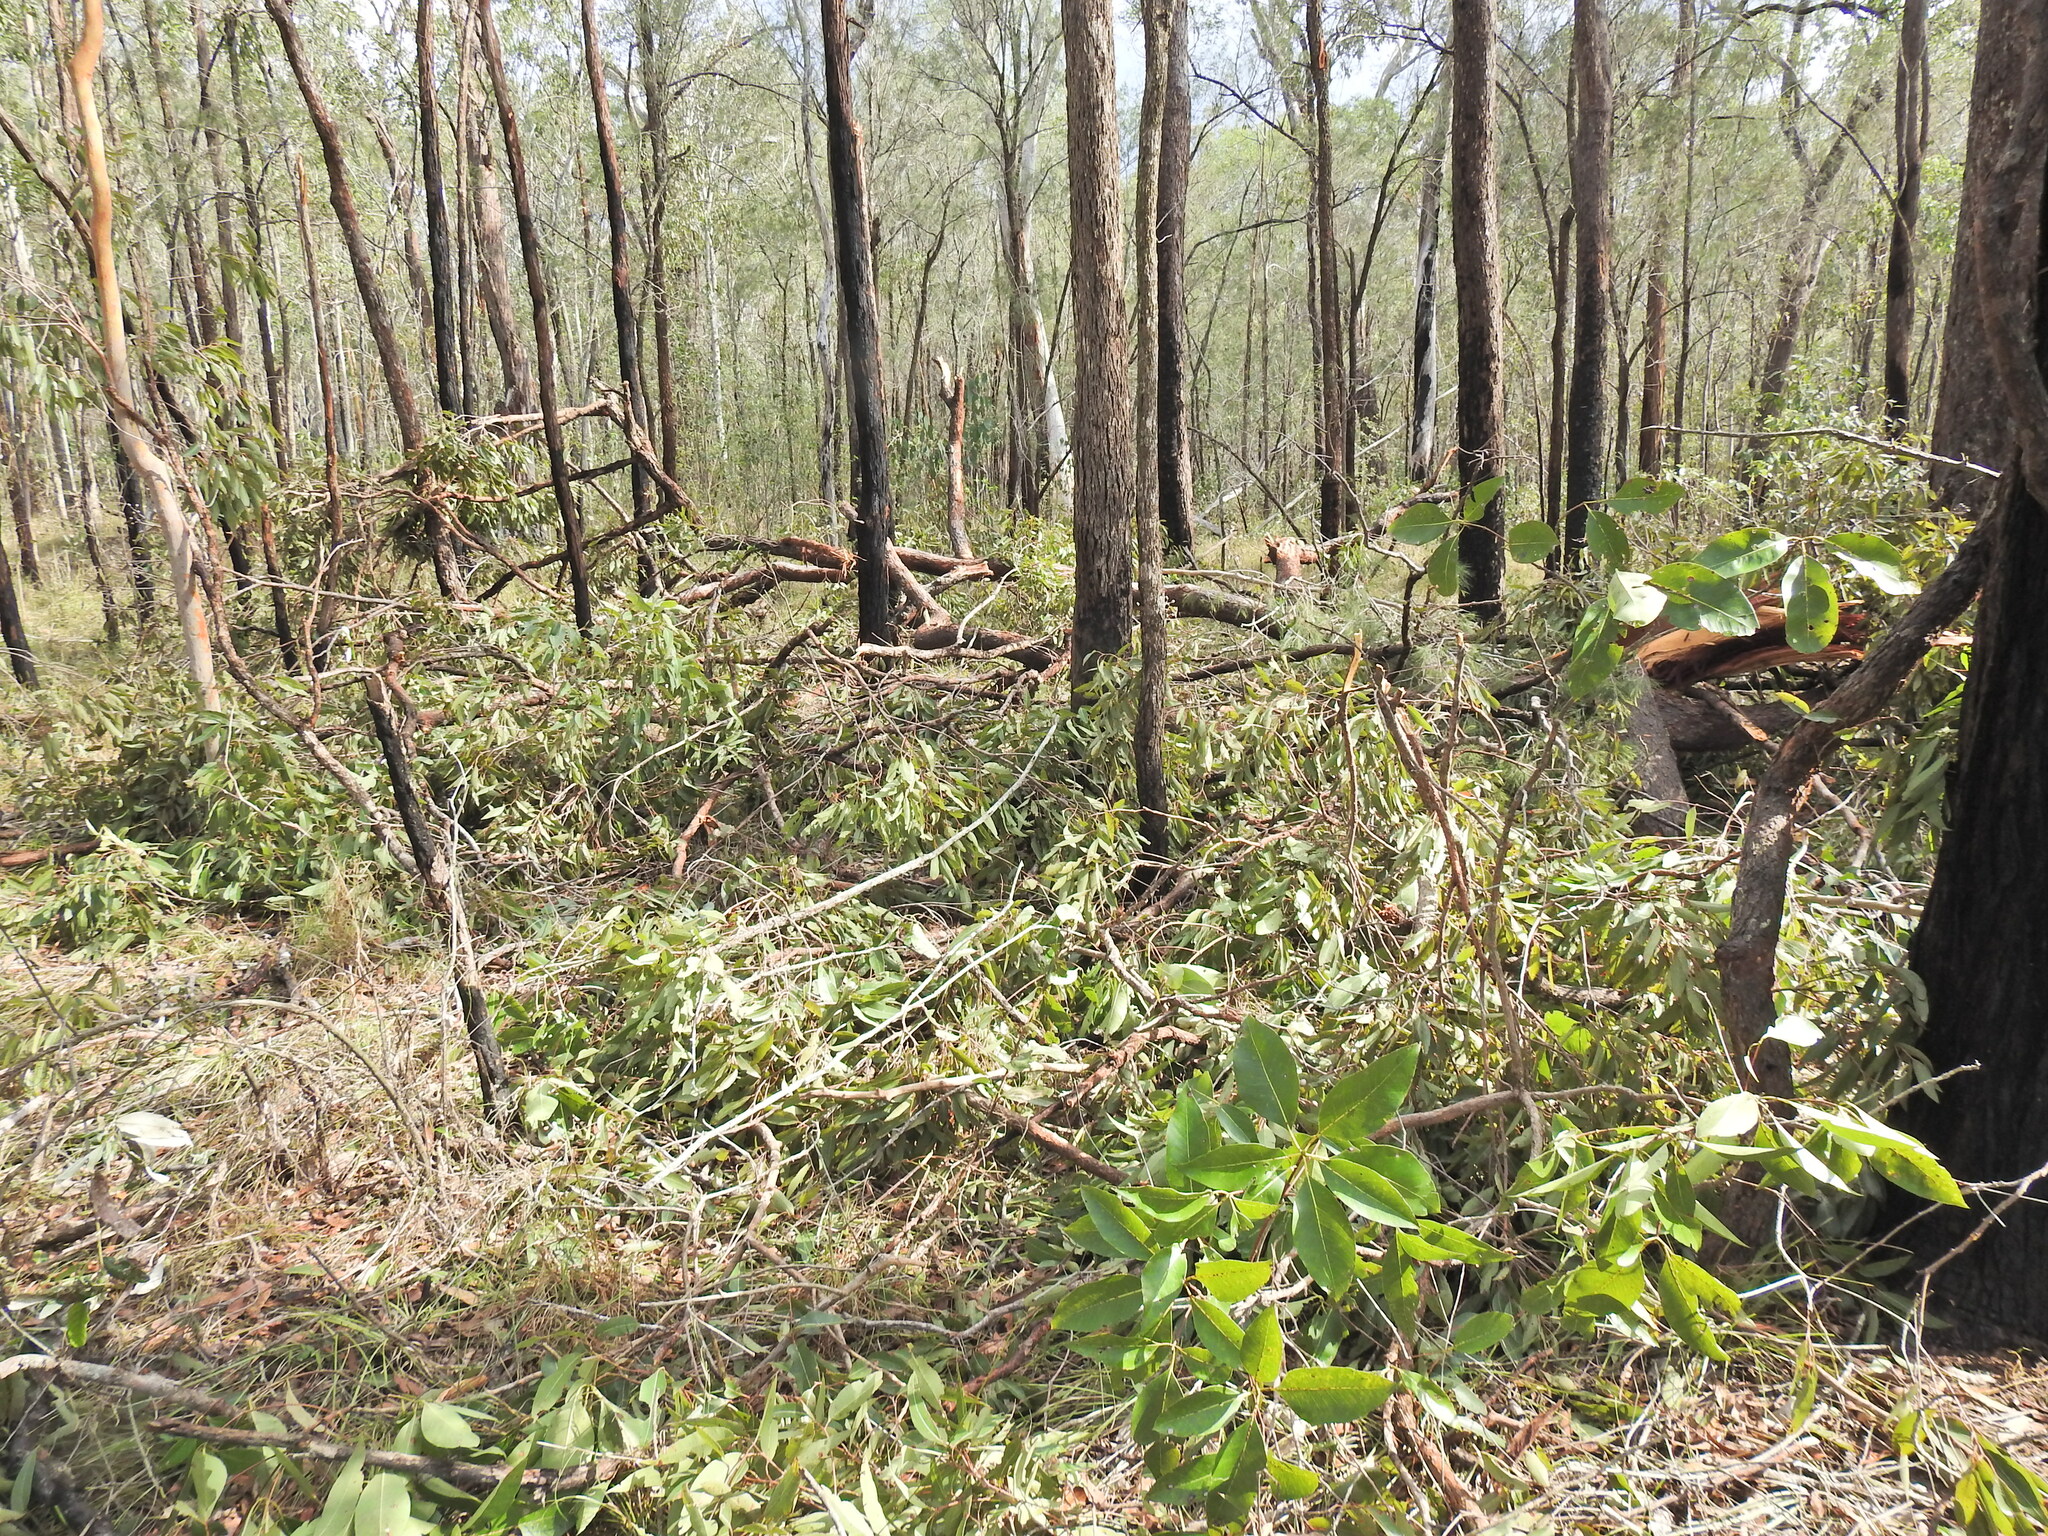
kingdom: Plantae
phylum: Tracheophyta
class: Magnoliopsida
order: Myrtales
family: Myrtaceae
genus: Corymbia
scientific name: Corymbia intermedia
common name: Pink-bloodwood
